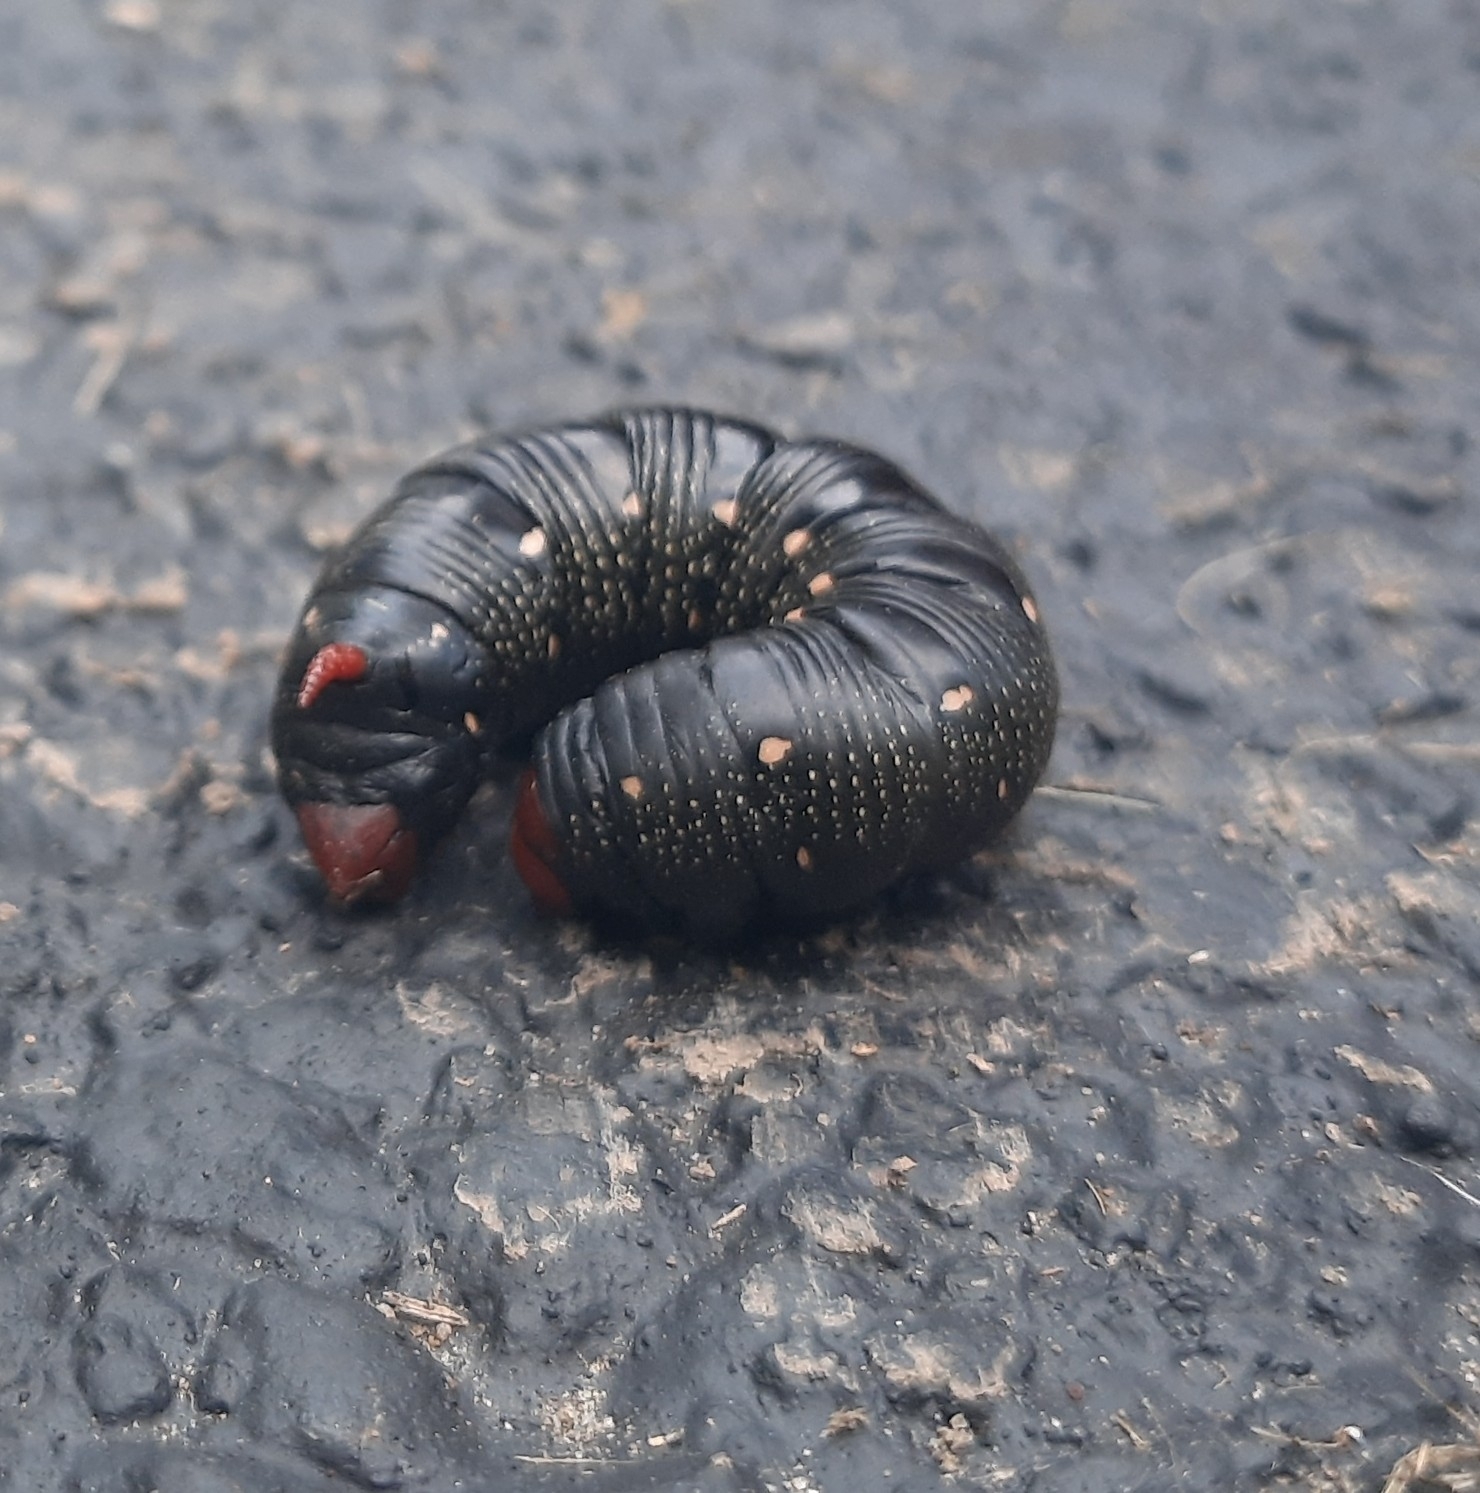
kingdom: Animalia
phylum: Arthropoda
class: Insecta
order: Lepidoptera
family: Sphingidae
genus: Hyles
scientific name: Hyles gallii
